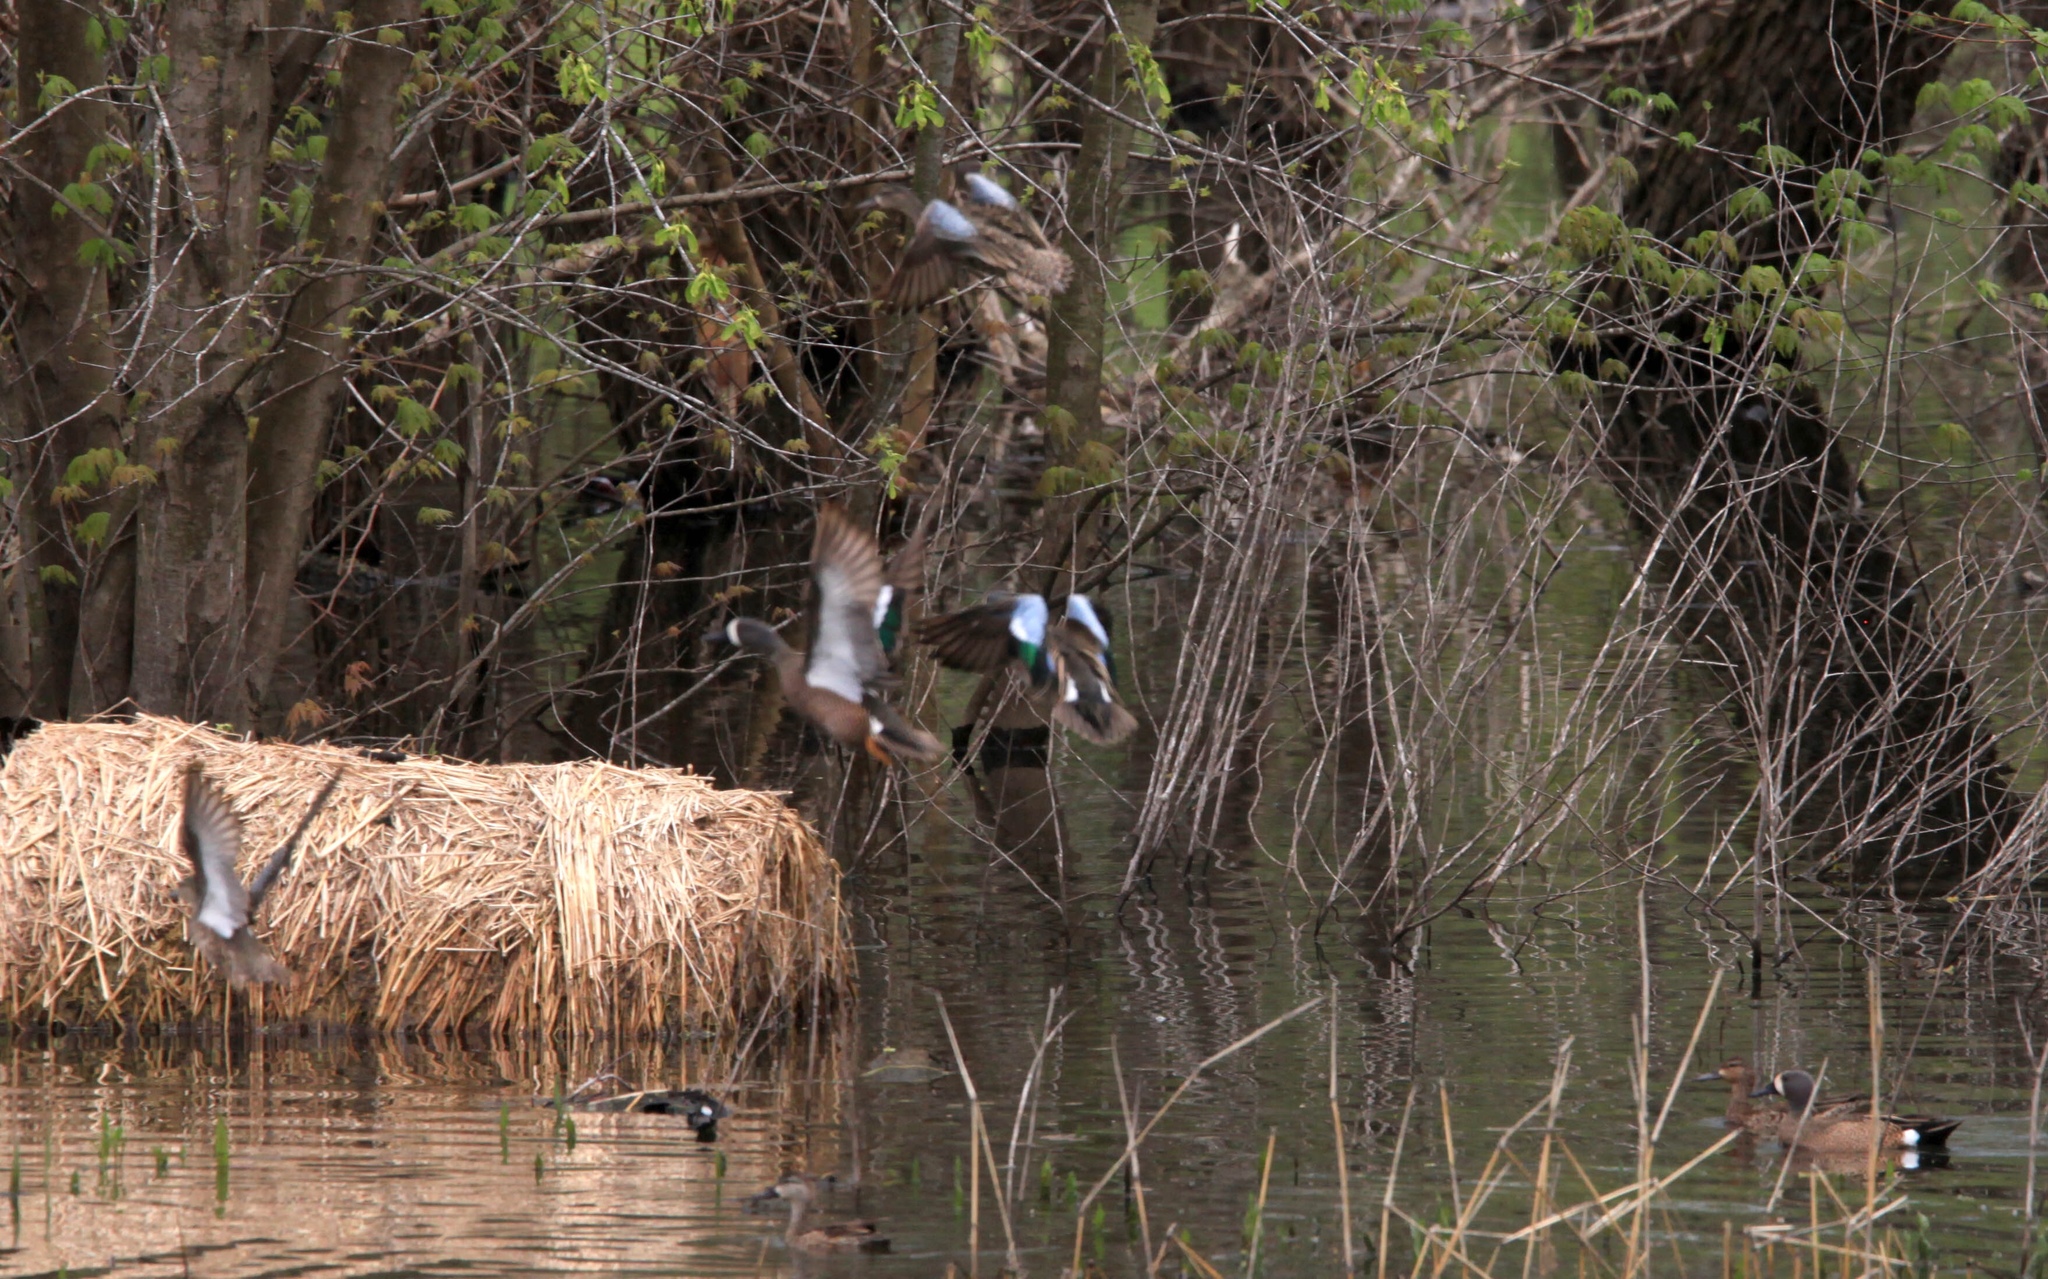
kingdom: Animalia
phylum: Chordata
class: Aves
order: Anseriformes
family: Anatidae
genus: Spatula
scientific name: Spatula discors
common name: Blue-winged teal
